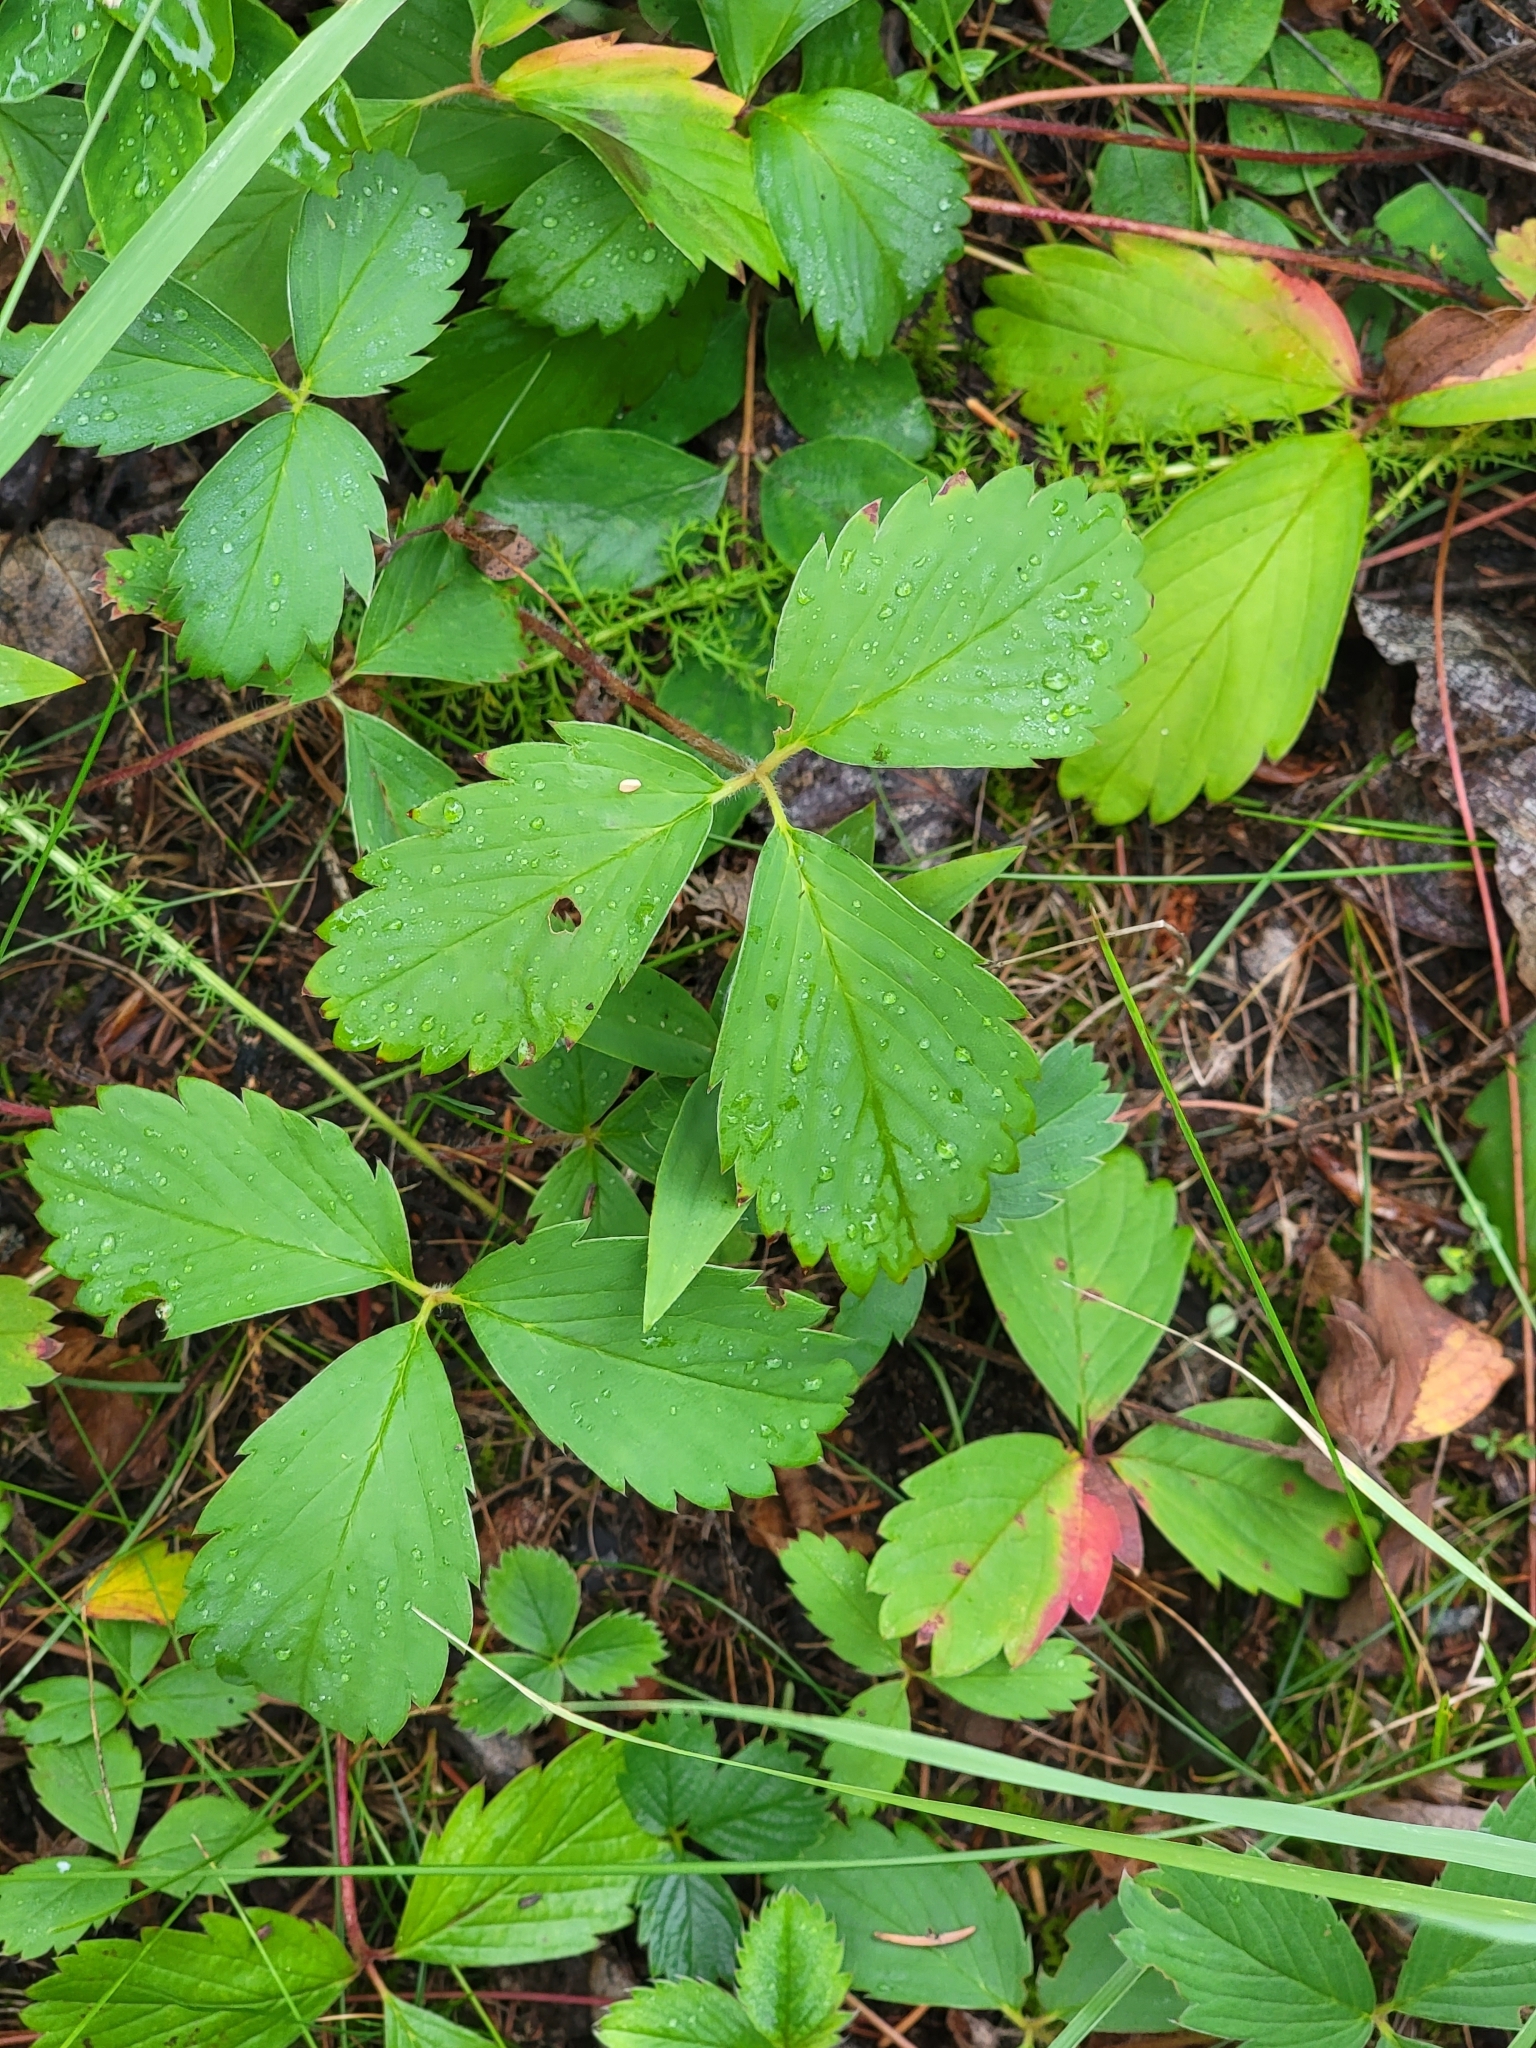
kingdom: Plantae
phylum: Tracheophyta
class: Magnoliopsida
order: Rosales
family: Rosaceae
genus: Fragaria
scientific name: Fragaria virginiana
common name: Thickleaved wild strawberry
